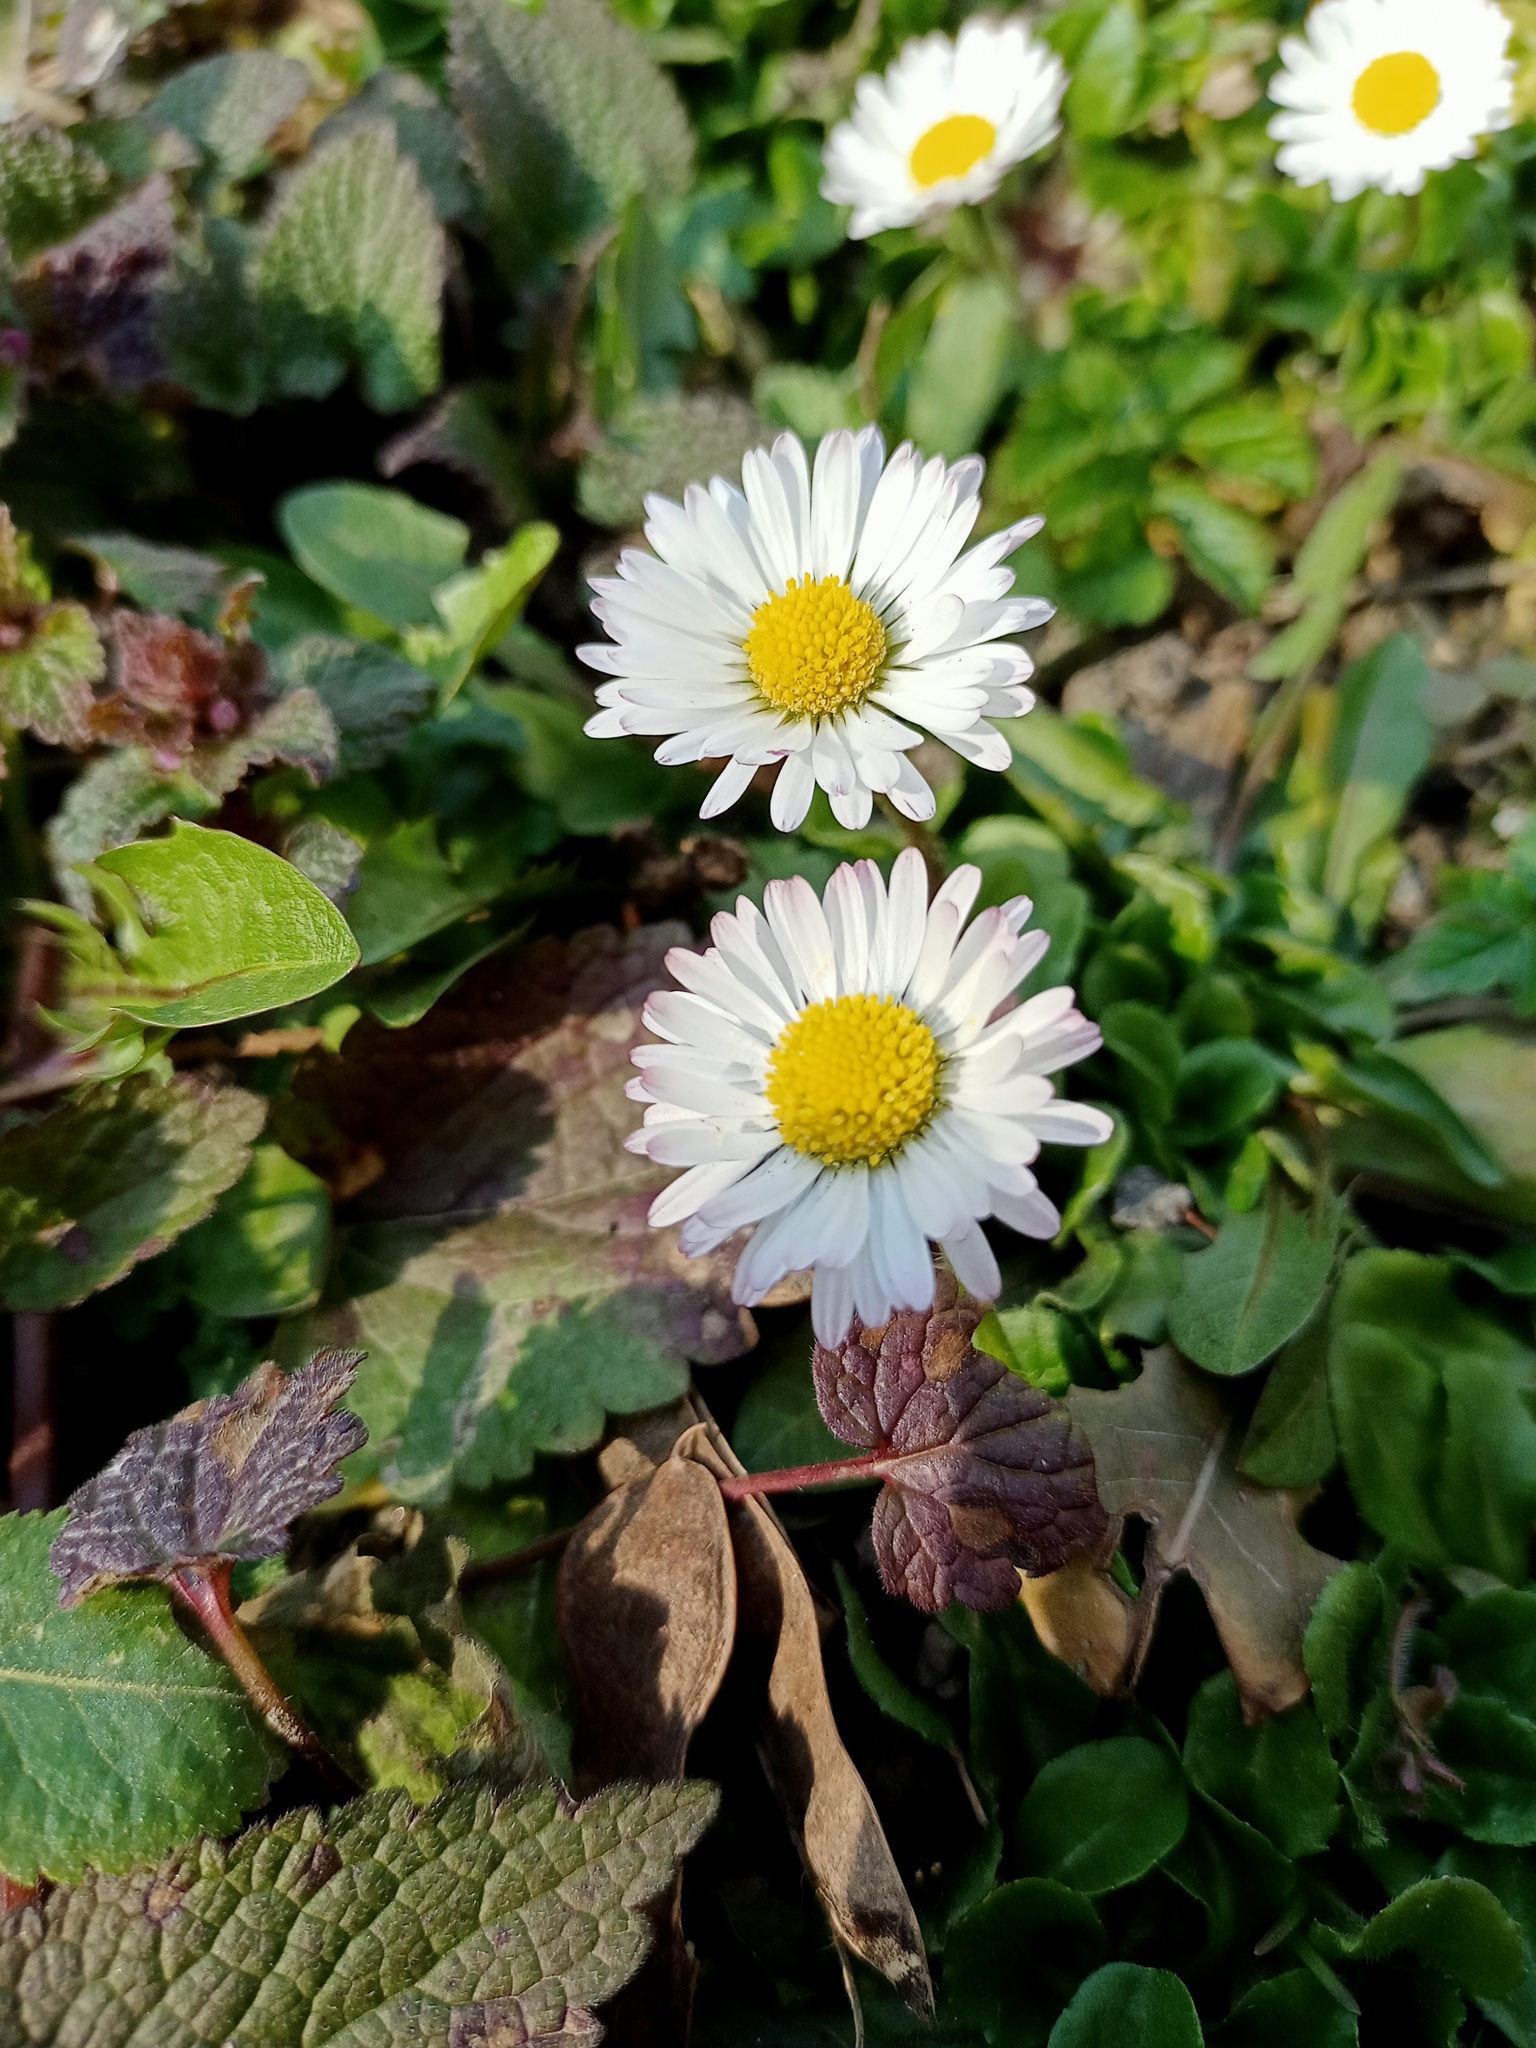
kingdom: Plantae
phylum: Tracheophyta
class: Magnoliopsida
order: Asterales
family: Asteraceae
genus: Bellis
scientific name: Bellis perennis
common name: Lawndaisy
